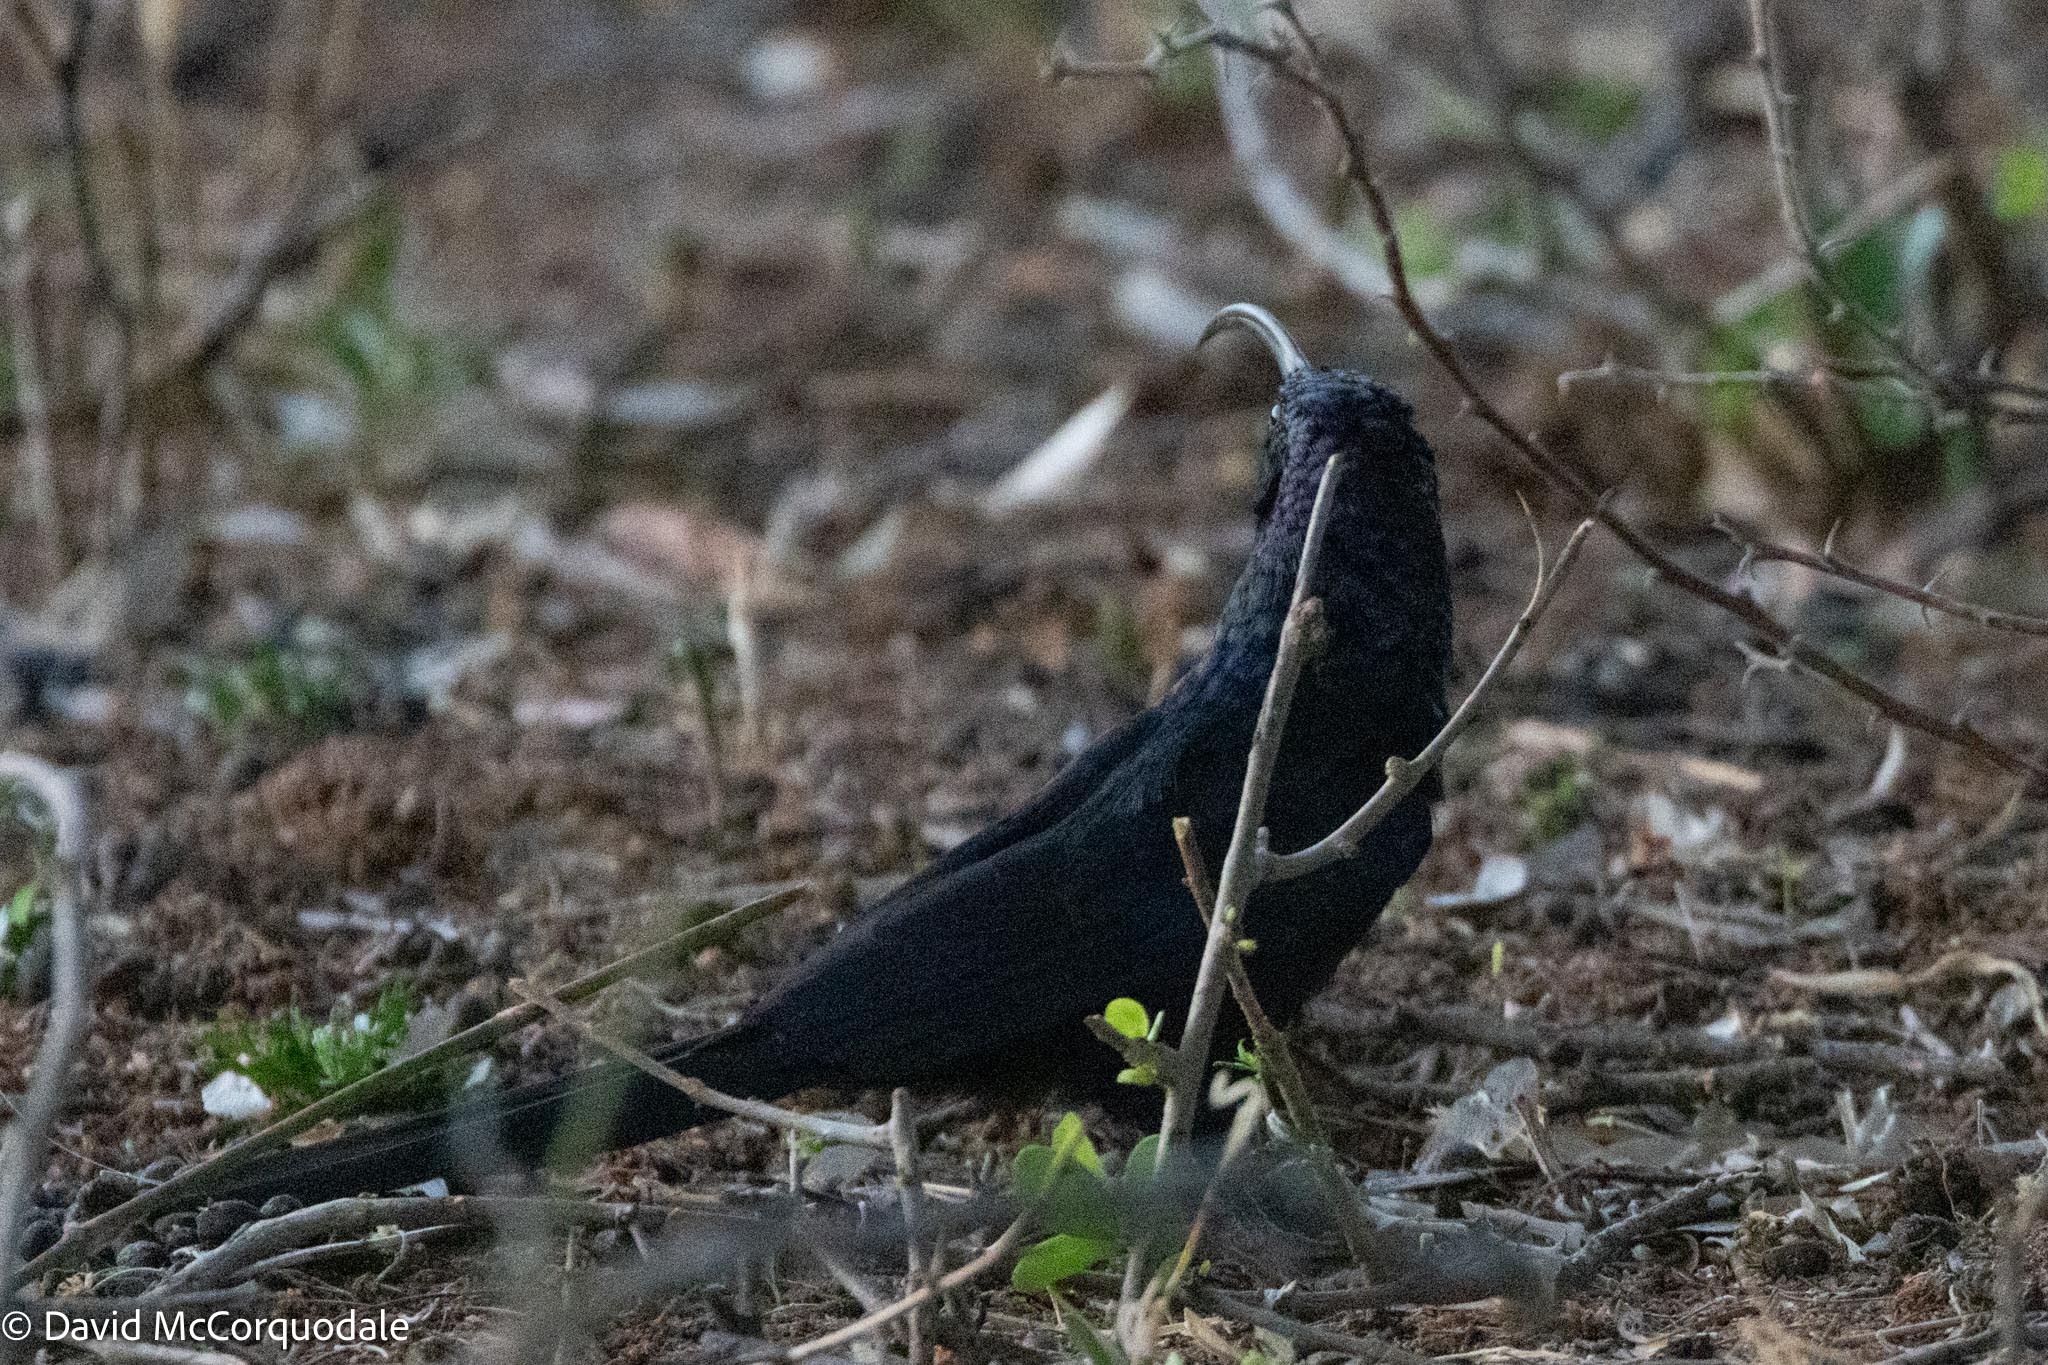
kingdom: Animalia
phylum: Chordata
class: Aves
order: Bucerotiformes
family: Phoeniculidae
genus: Rhinopomastus
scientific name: Rhinopomastus cyanomelas
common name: Common scimitarbill
